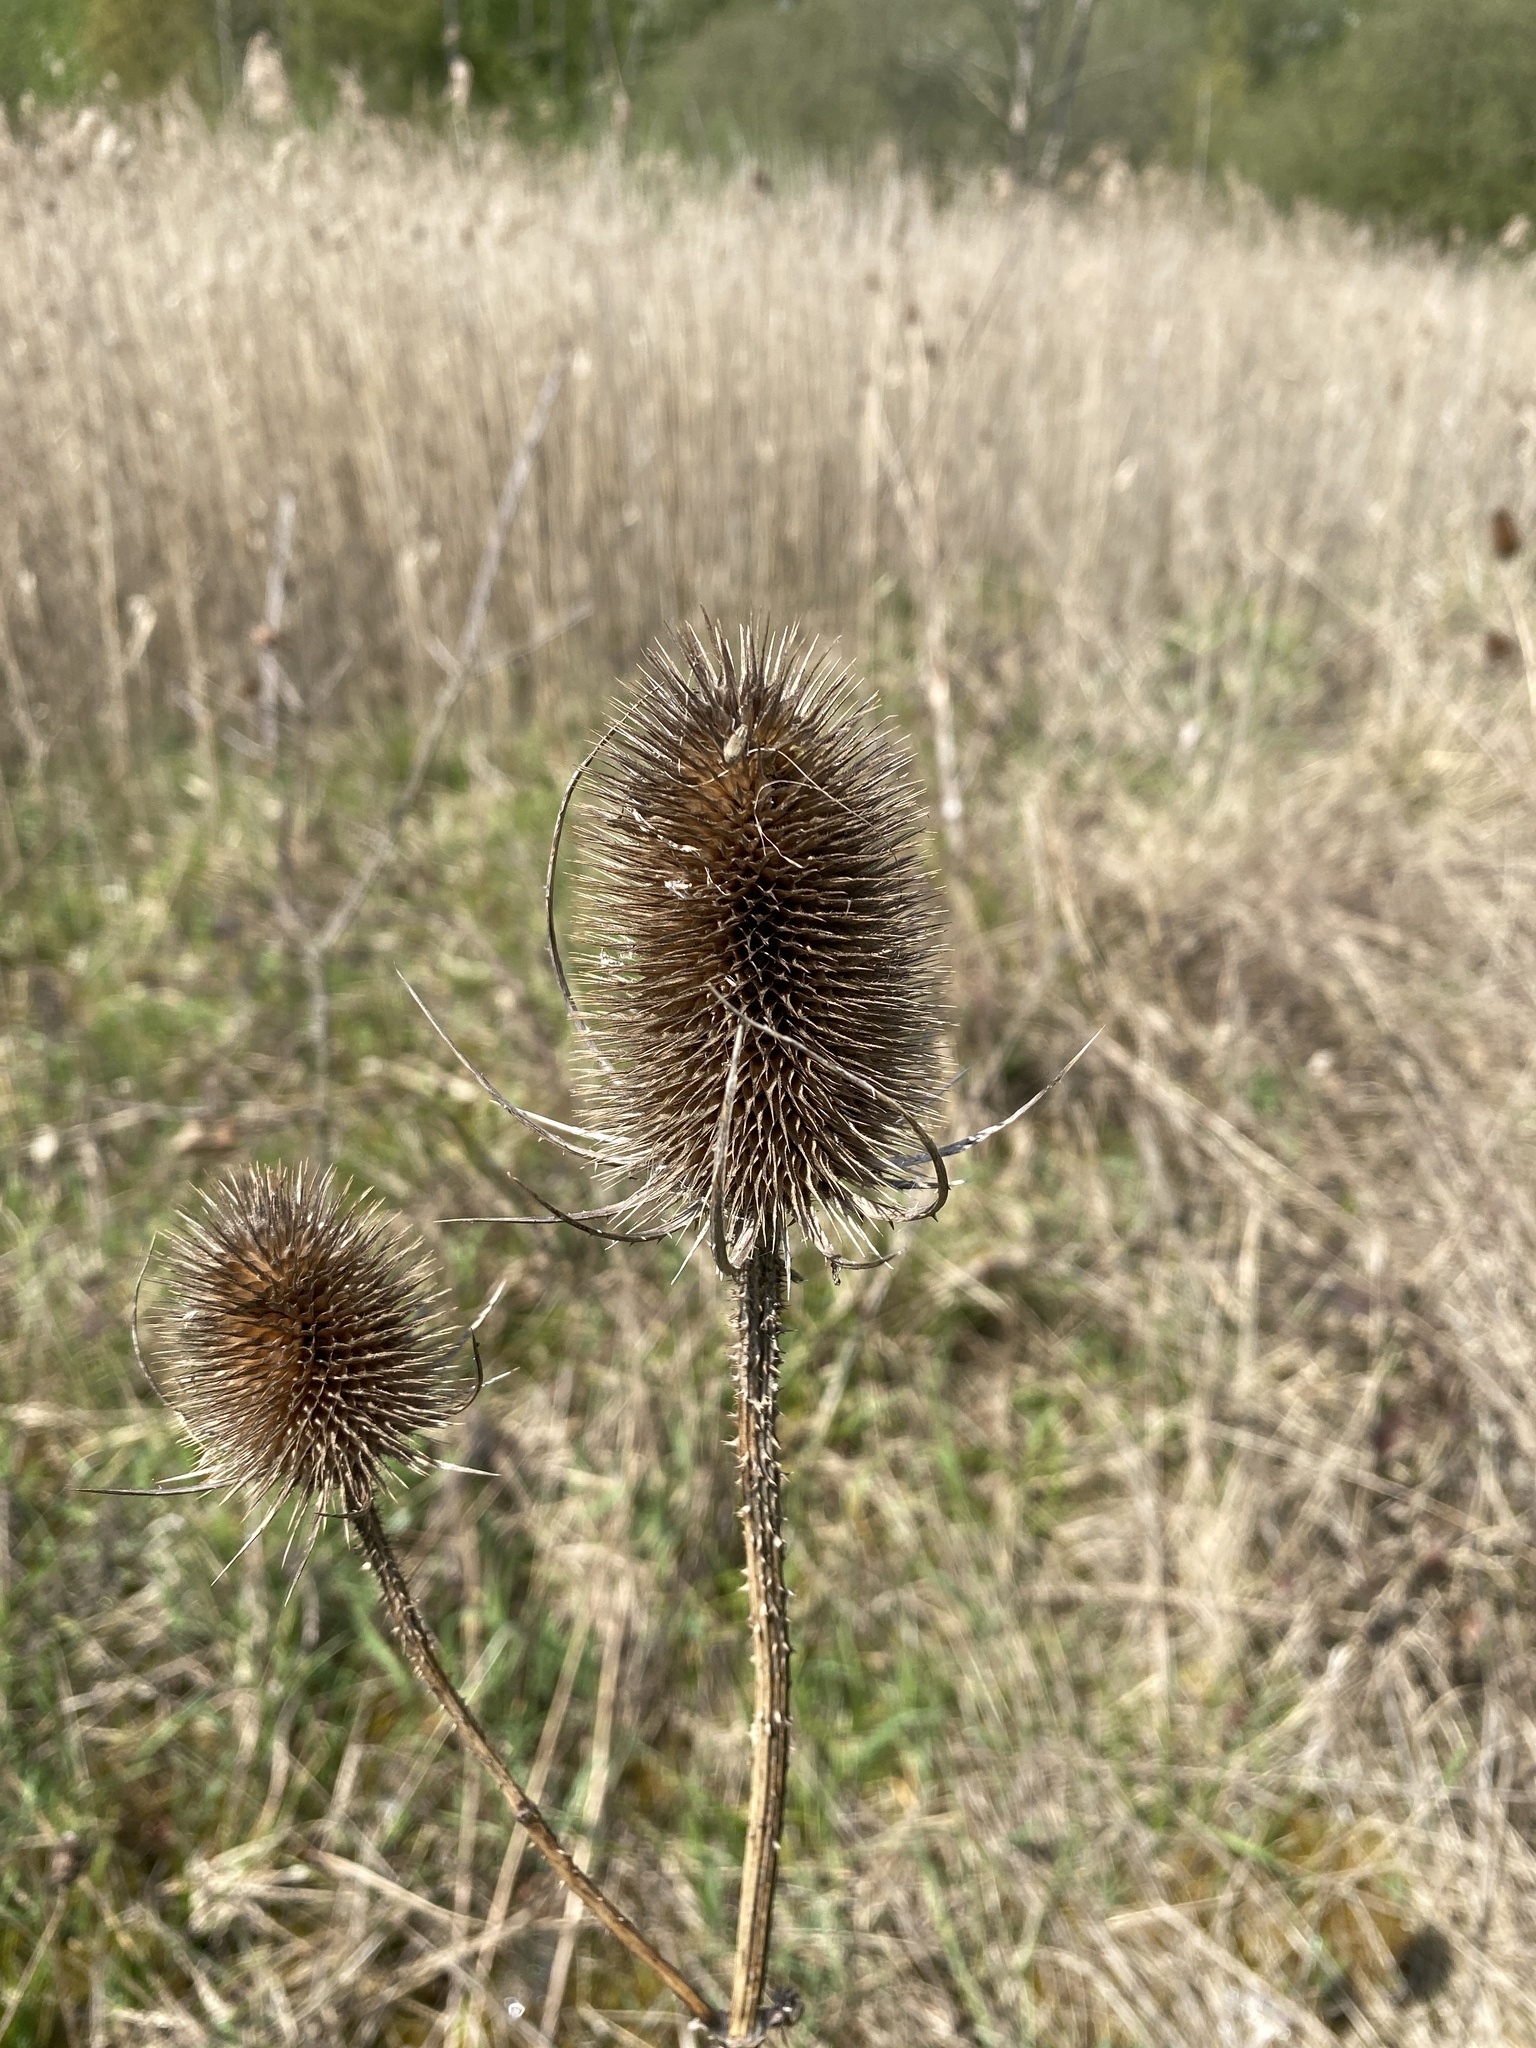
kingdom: Plantae
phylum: Tracheophyta
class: Magnoliopsida
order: Dipsacales
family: Caprifoliaceae
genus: Dipsacus
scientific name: Dipsacus fullonum
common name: Teasel
